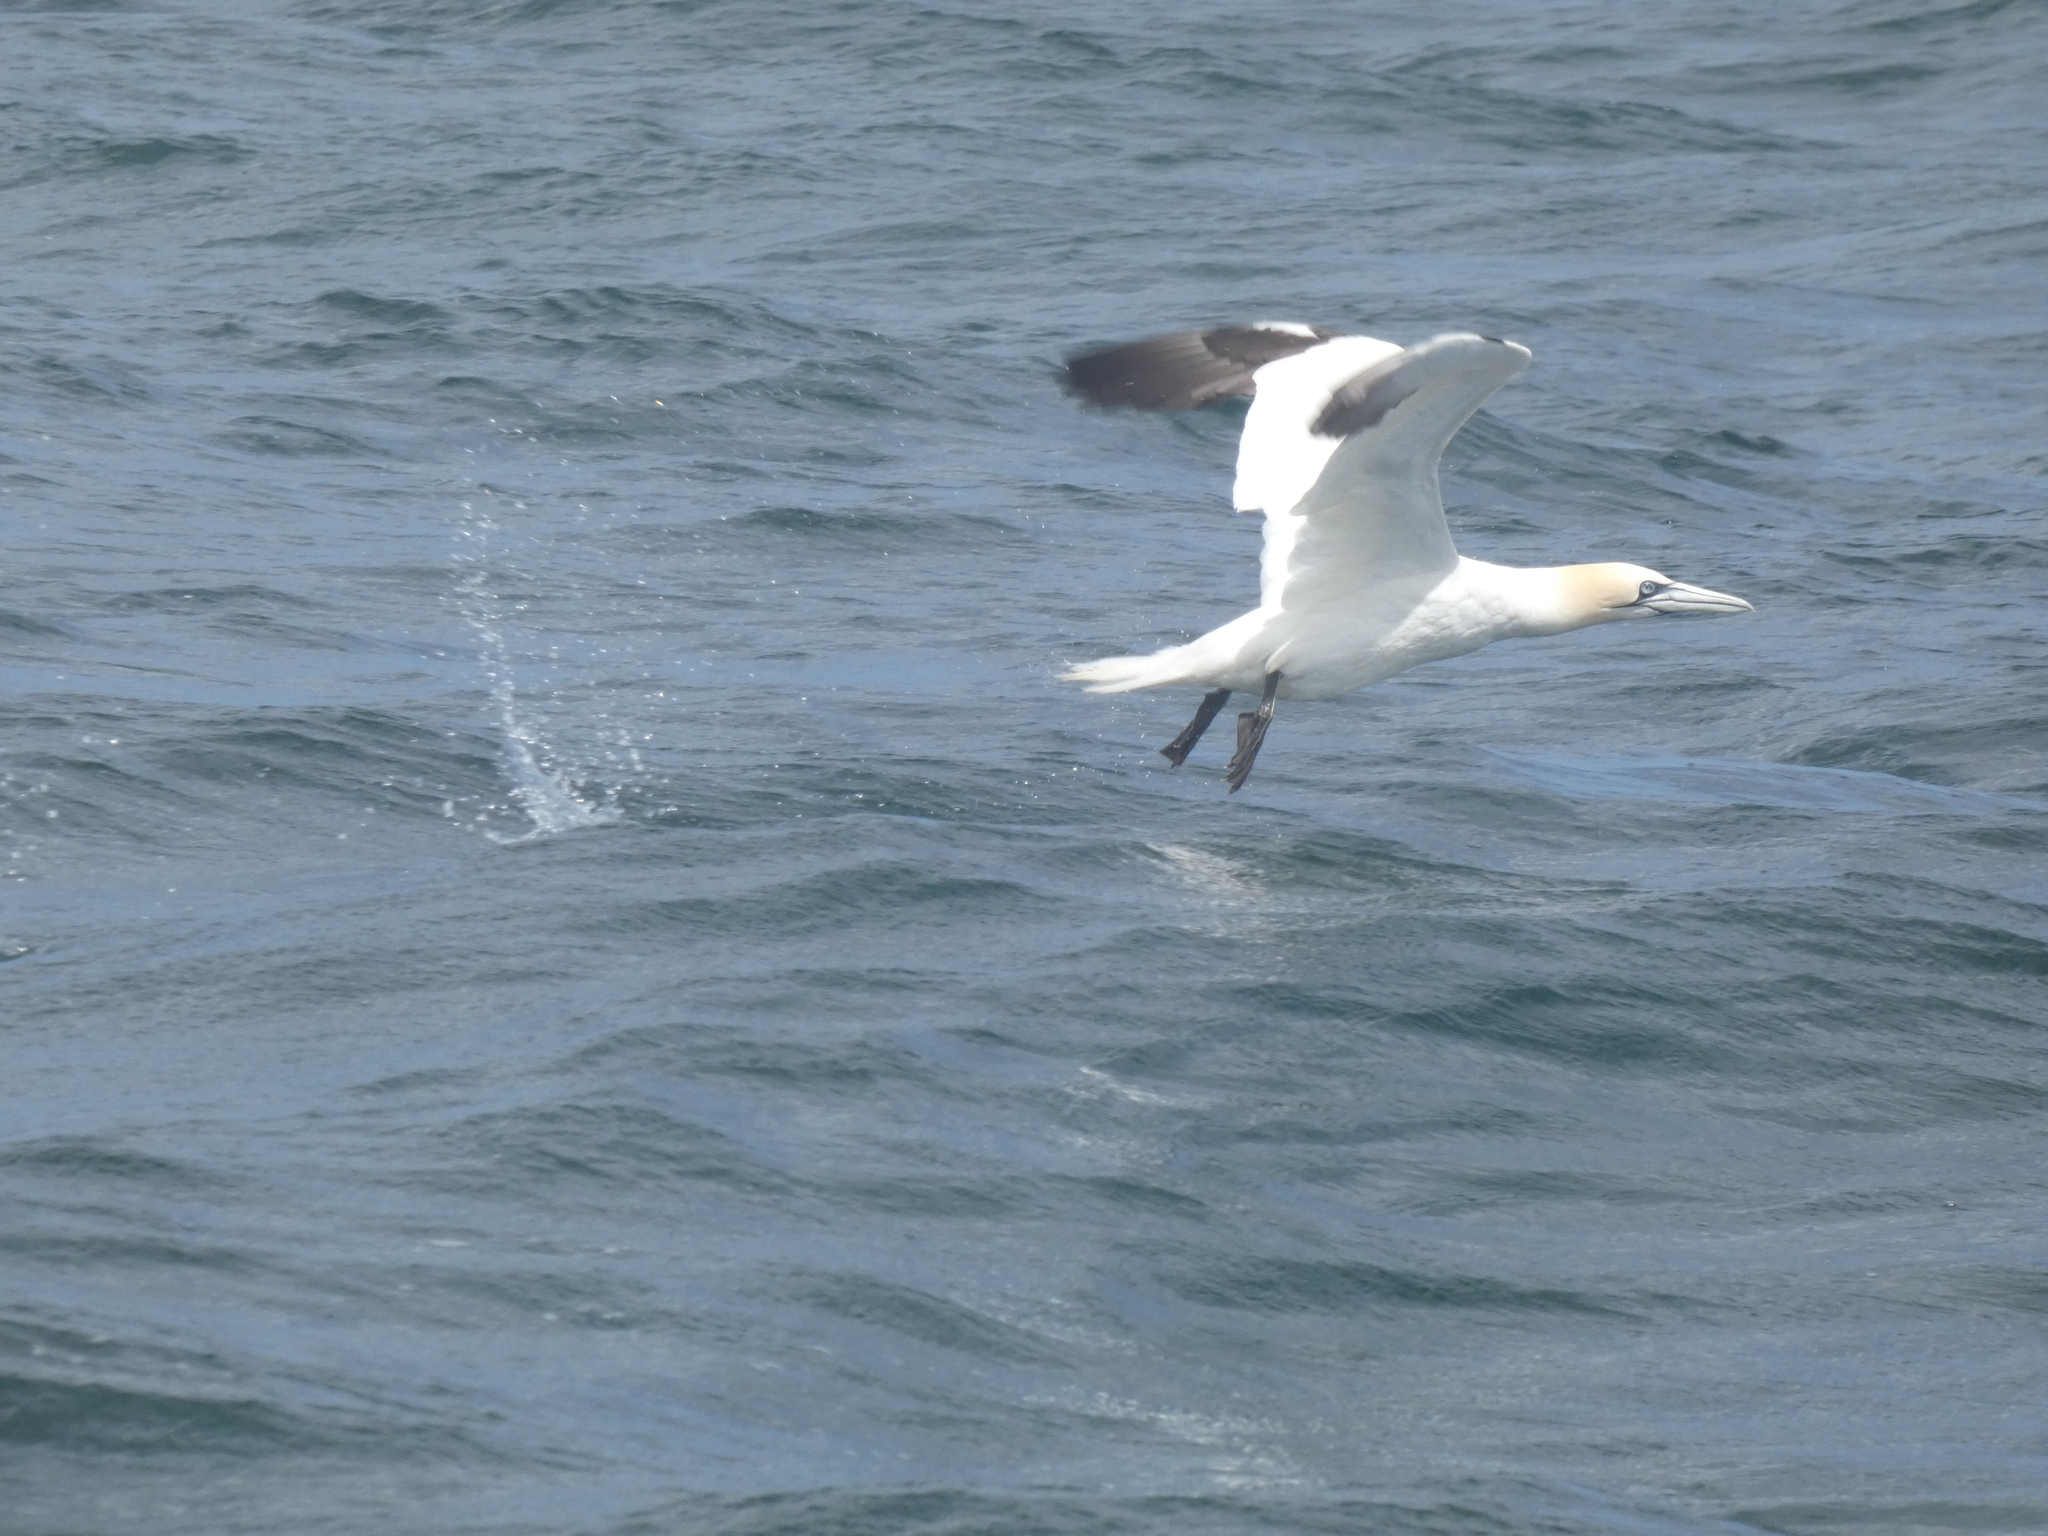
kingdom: Animalia
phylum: Chordata
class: Aves
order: Suliformes
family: Sulidae
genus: Morus
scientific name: Morus bassanus
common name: Northern gannet
